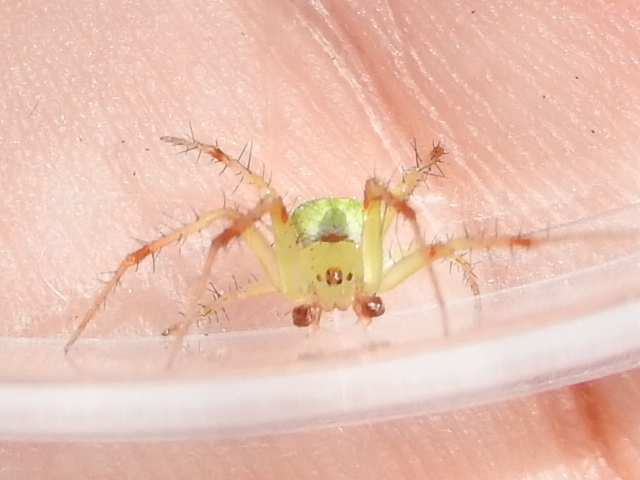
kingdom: Animalia
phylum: Arthropoda
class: Arachnida
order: Araneae
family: Araneidae
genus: Araneus
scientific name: Araneus cingulatus
